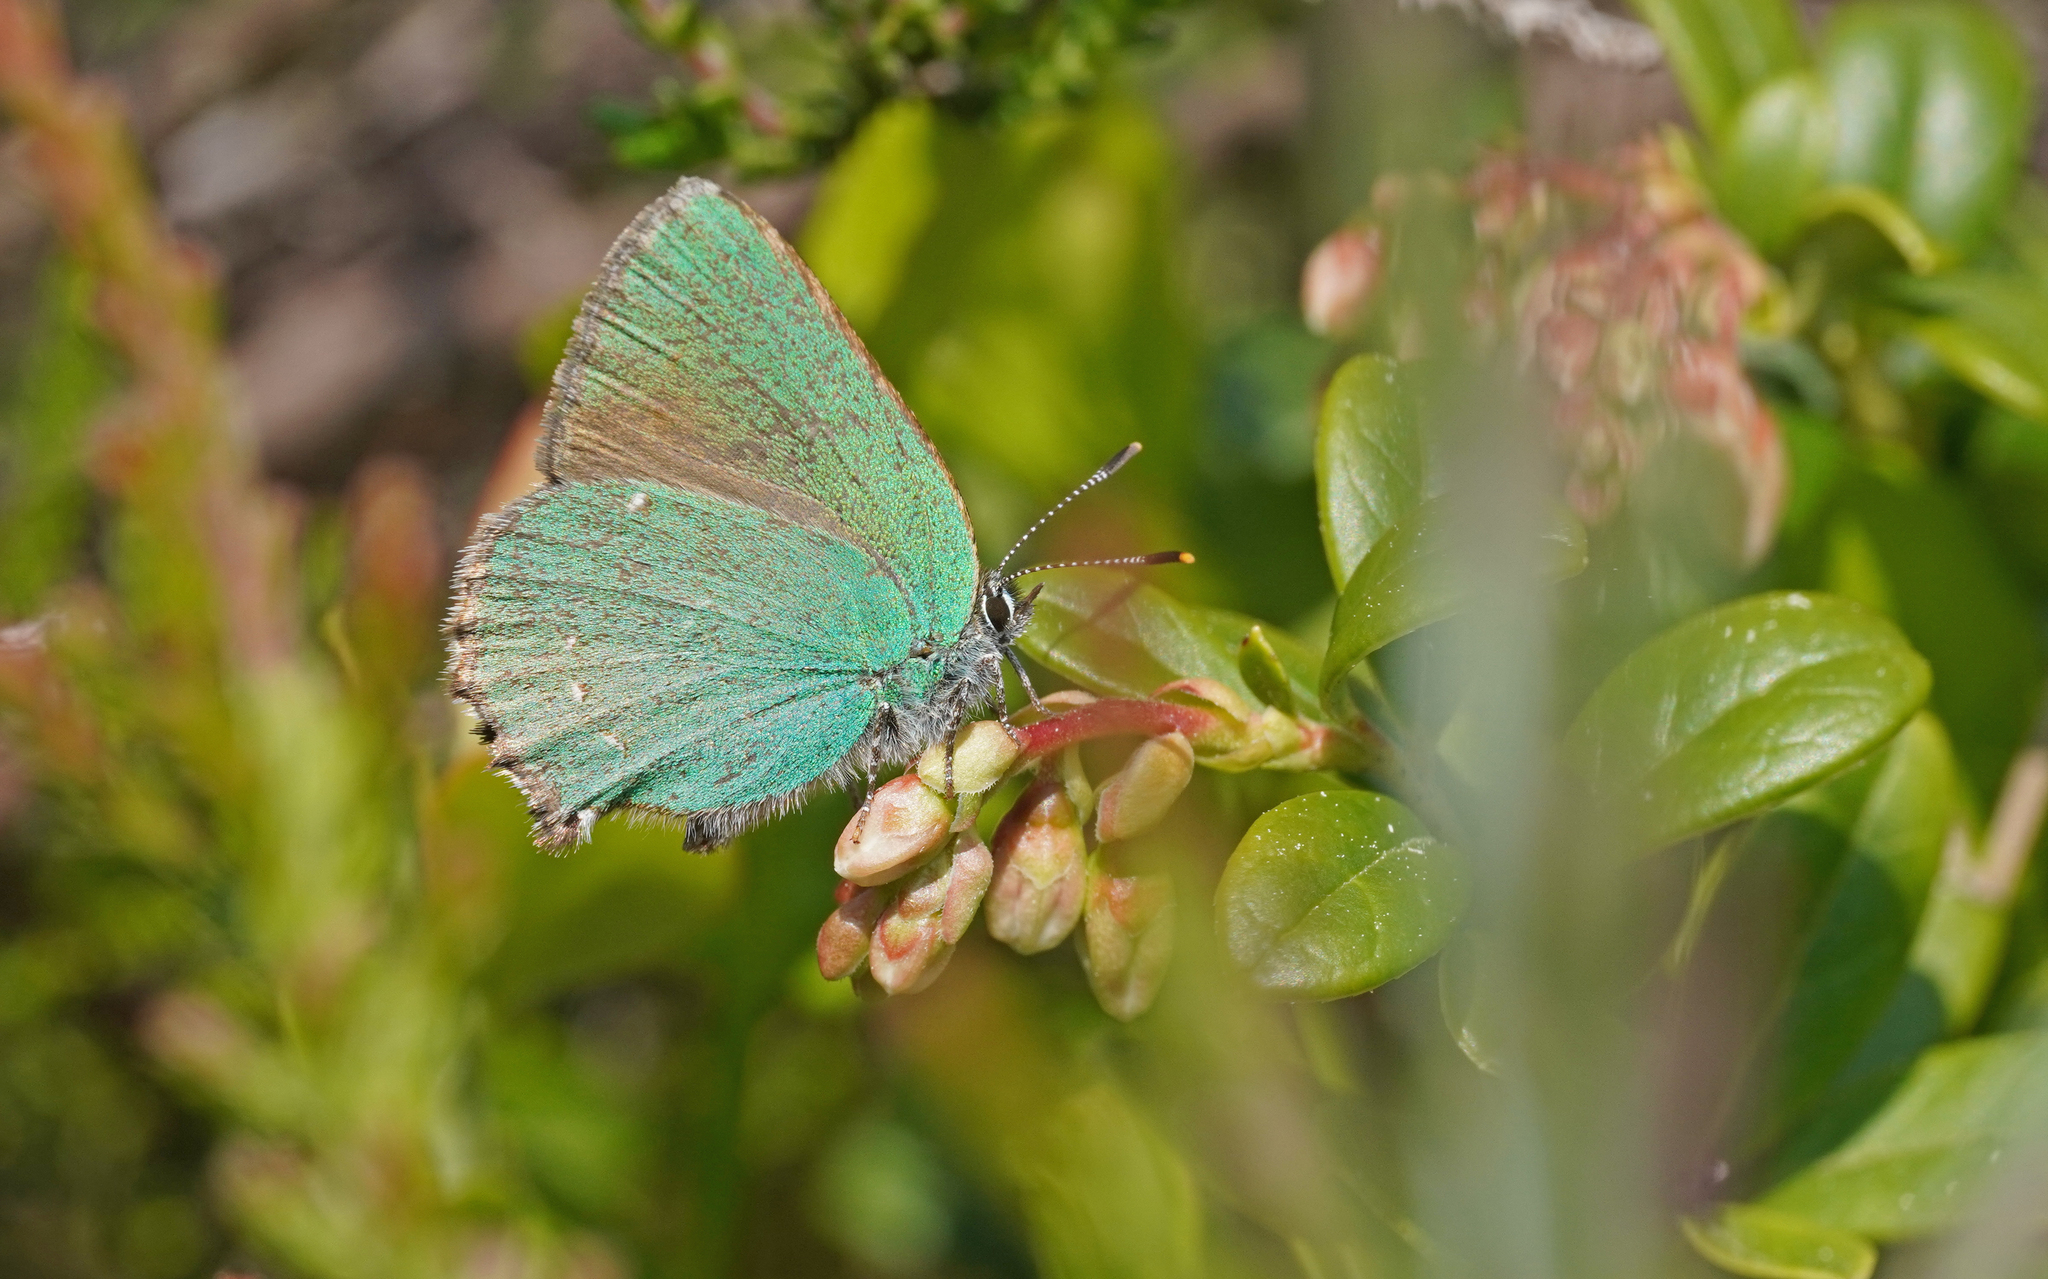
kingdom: Animalia
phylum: Arthropoda
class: Insecta
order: Lepidoptera
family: Lycaenidae
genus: Callophrys
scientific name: Callophrys rubi
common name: Green hairstreak
